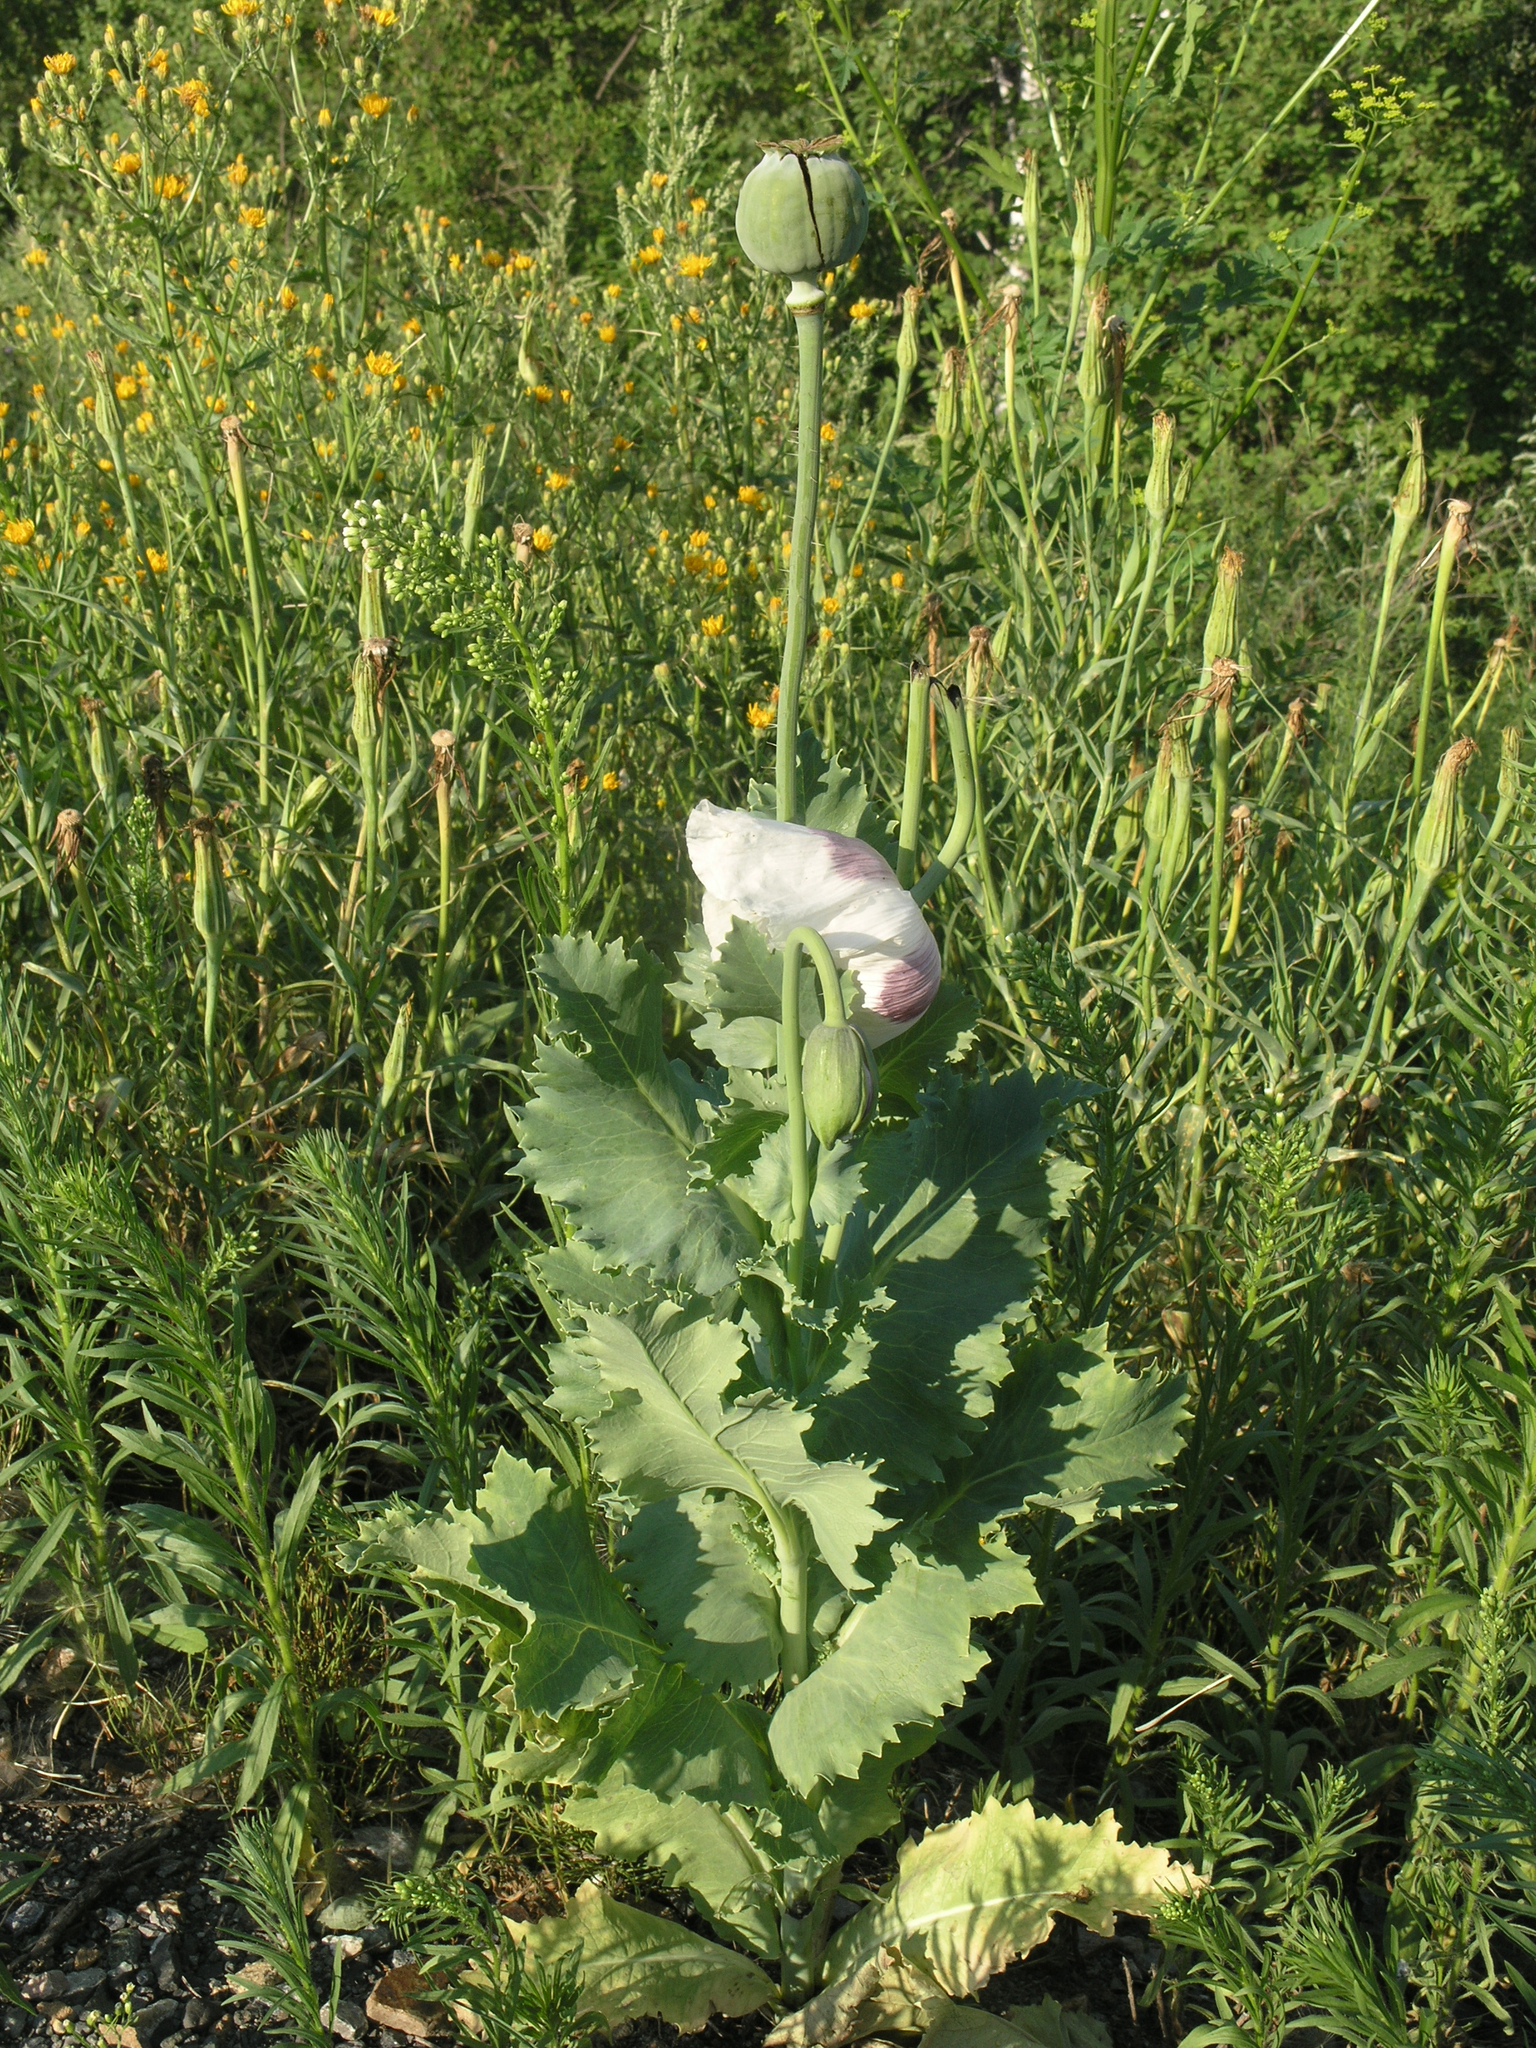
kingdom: Plantae
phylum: Tracheophyta
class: Magnoliopsida
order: Ranunculales
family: Papaveraceae
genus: Papaver
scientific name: Papaver somniferum
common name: Opium poppy
